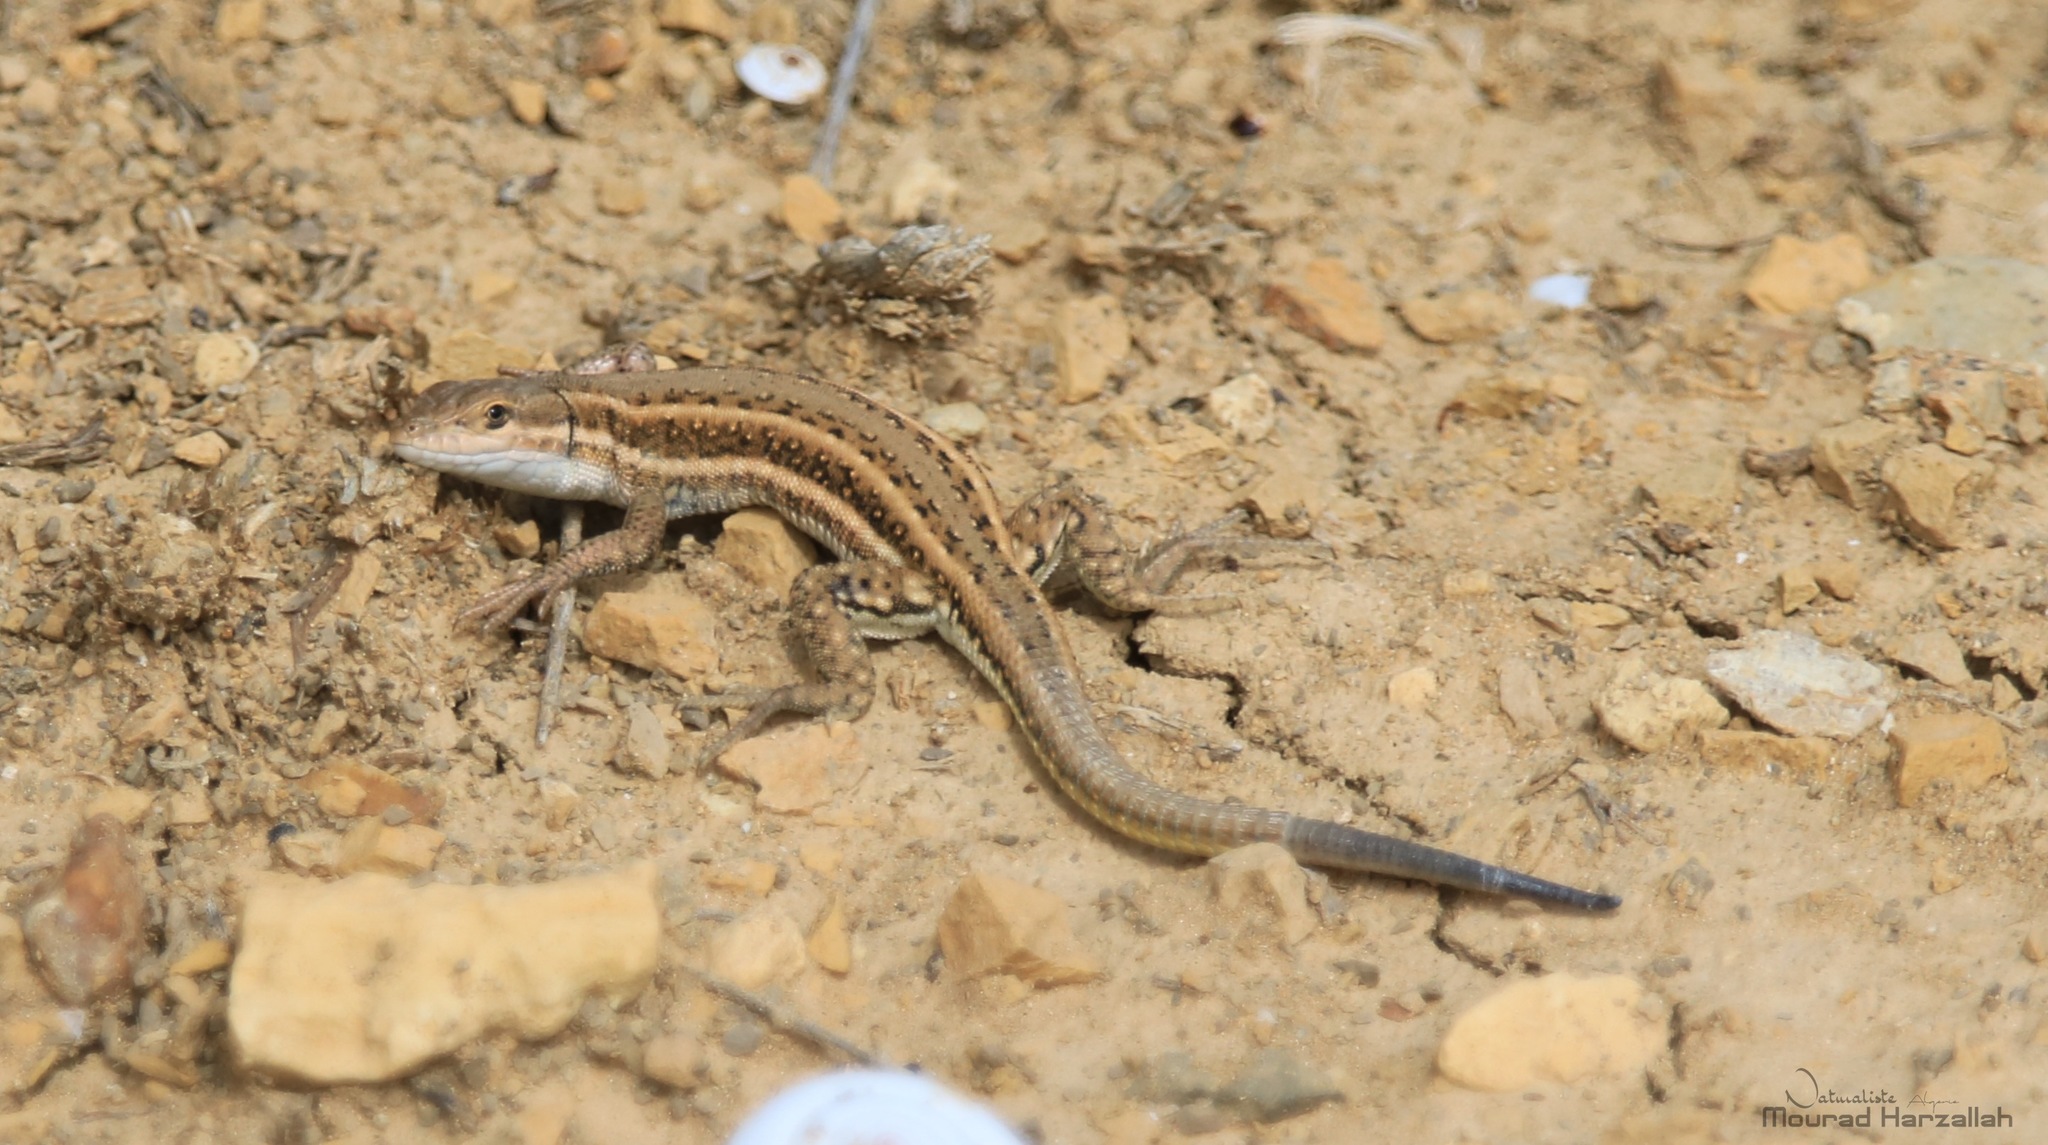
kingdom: Animalia
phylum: Chordata
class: Squamata
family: Lacertidae
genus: Mesalina
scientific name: Mesalina olivieri
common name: Oliver's desert racer
